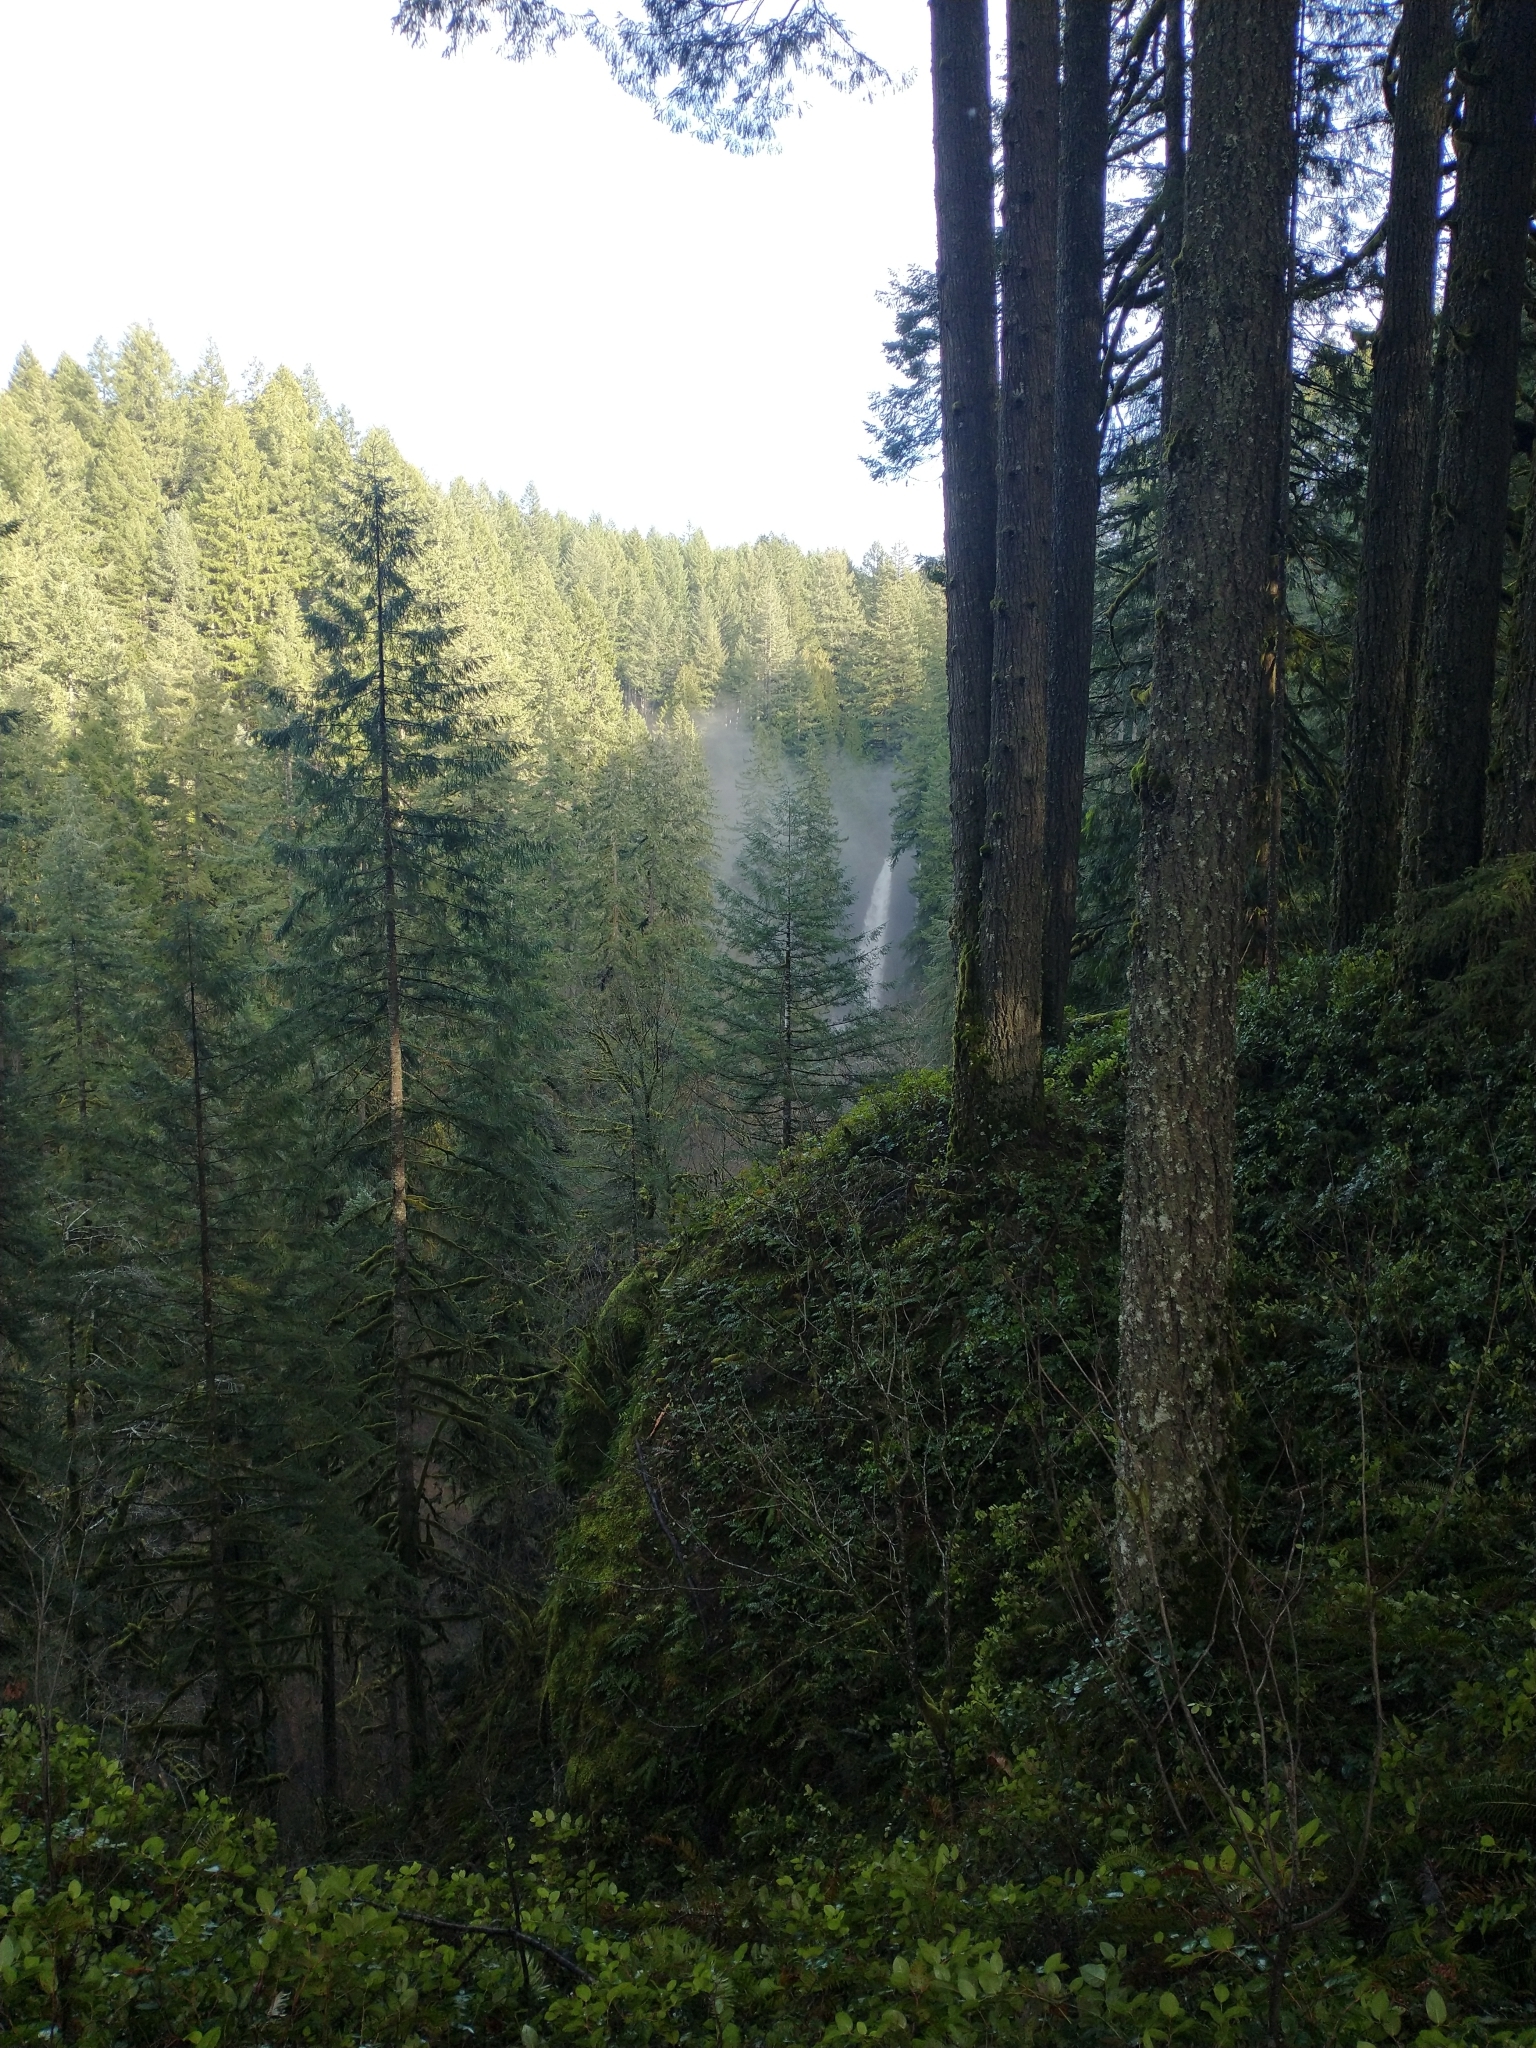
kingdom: Plantae
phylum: Tracheophyta
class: Pinopsida
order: Pinales
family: Pinaceae
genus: Pseudotsuga
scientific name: Pseudotsuga menziesii
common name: Douglas fir
